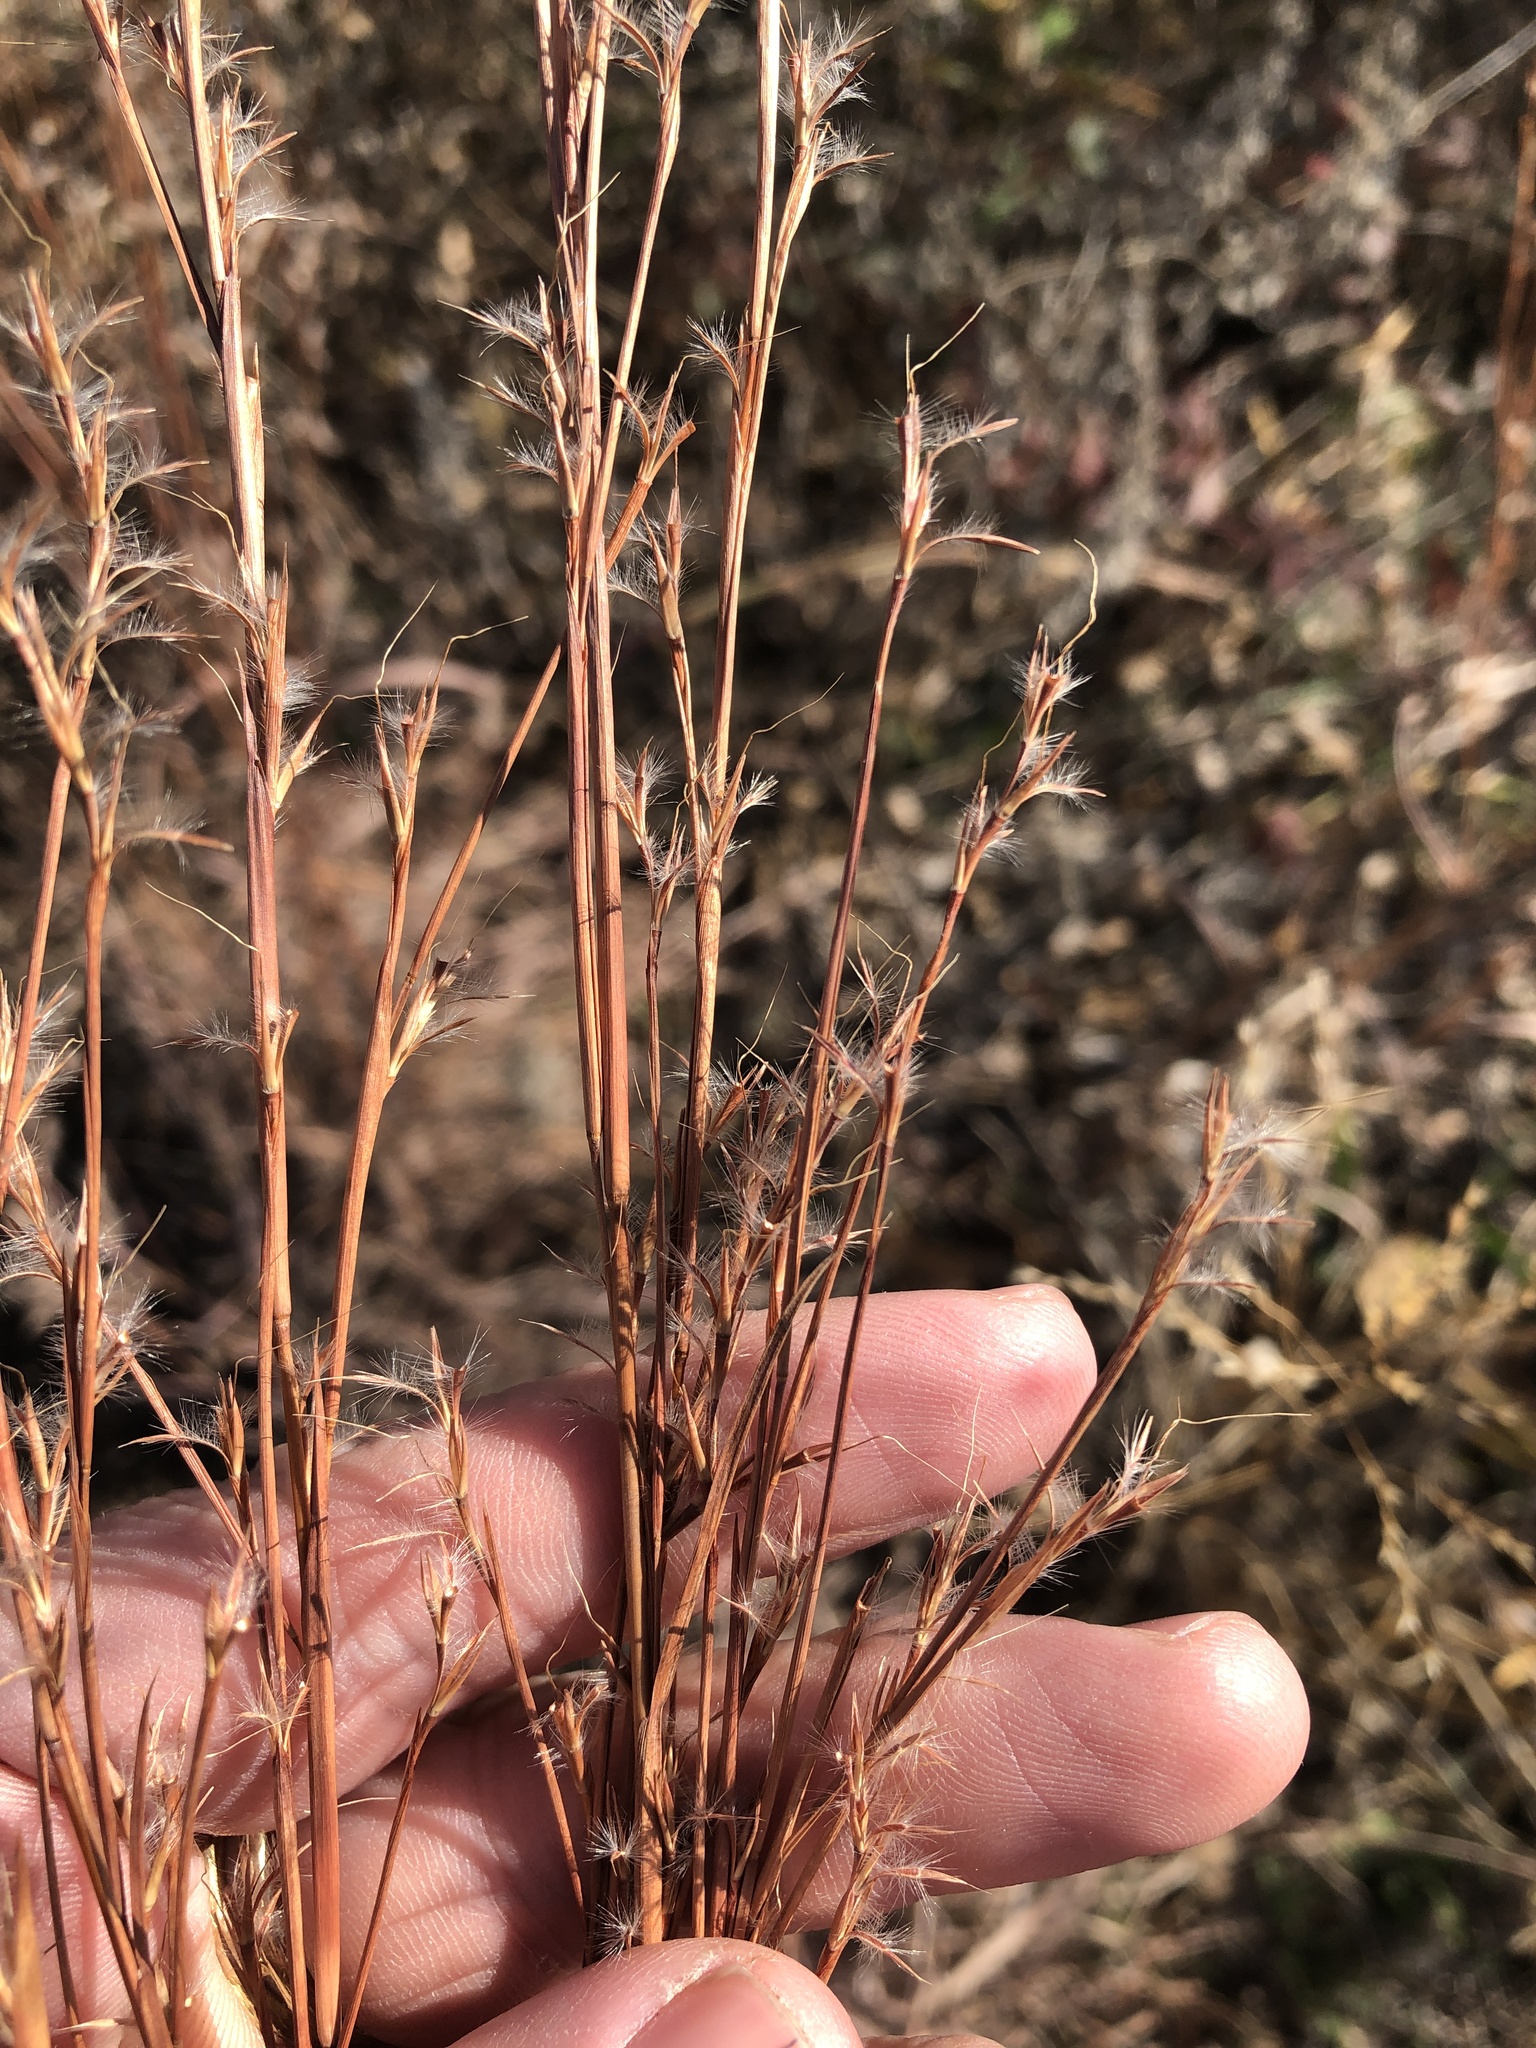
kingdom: Plantae
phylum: Tracheophyta
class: Liliopsida
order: Poales
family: Poaceae
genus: Schizachyrium
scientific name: Schizachyrium scoparium
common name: Little bluestem
